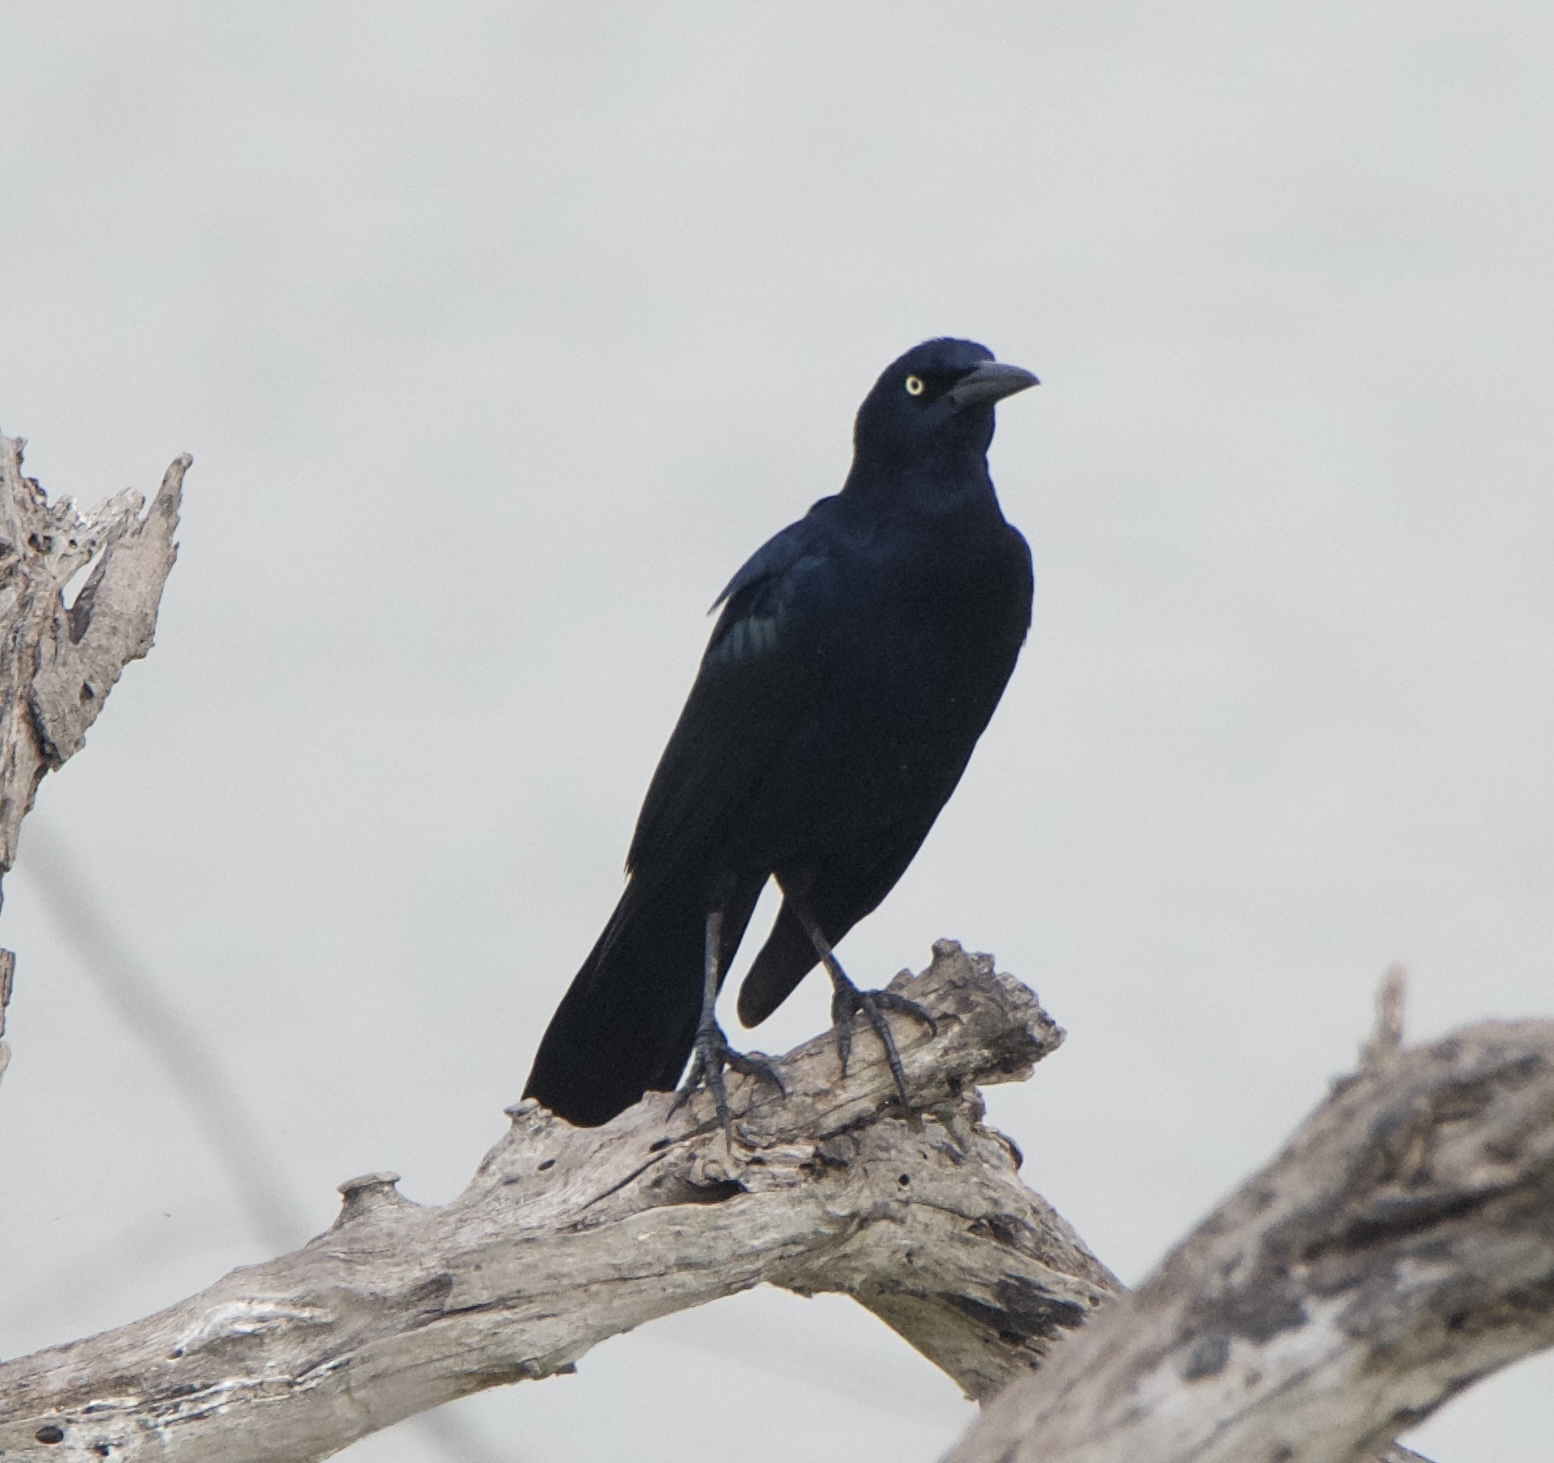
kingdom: Animalia
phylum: Chordata
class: Aves
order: Passeriformes
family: Icteridae
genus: Quiscalus
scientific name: Quiscalus mexicanus
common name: Great-tailed grackle
